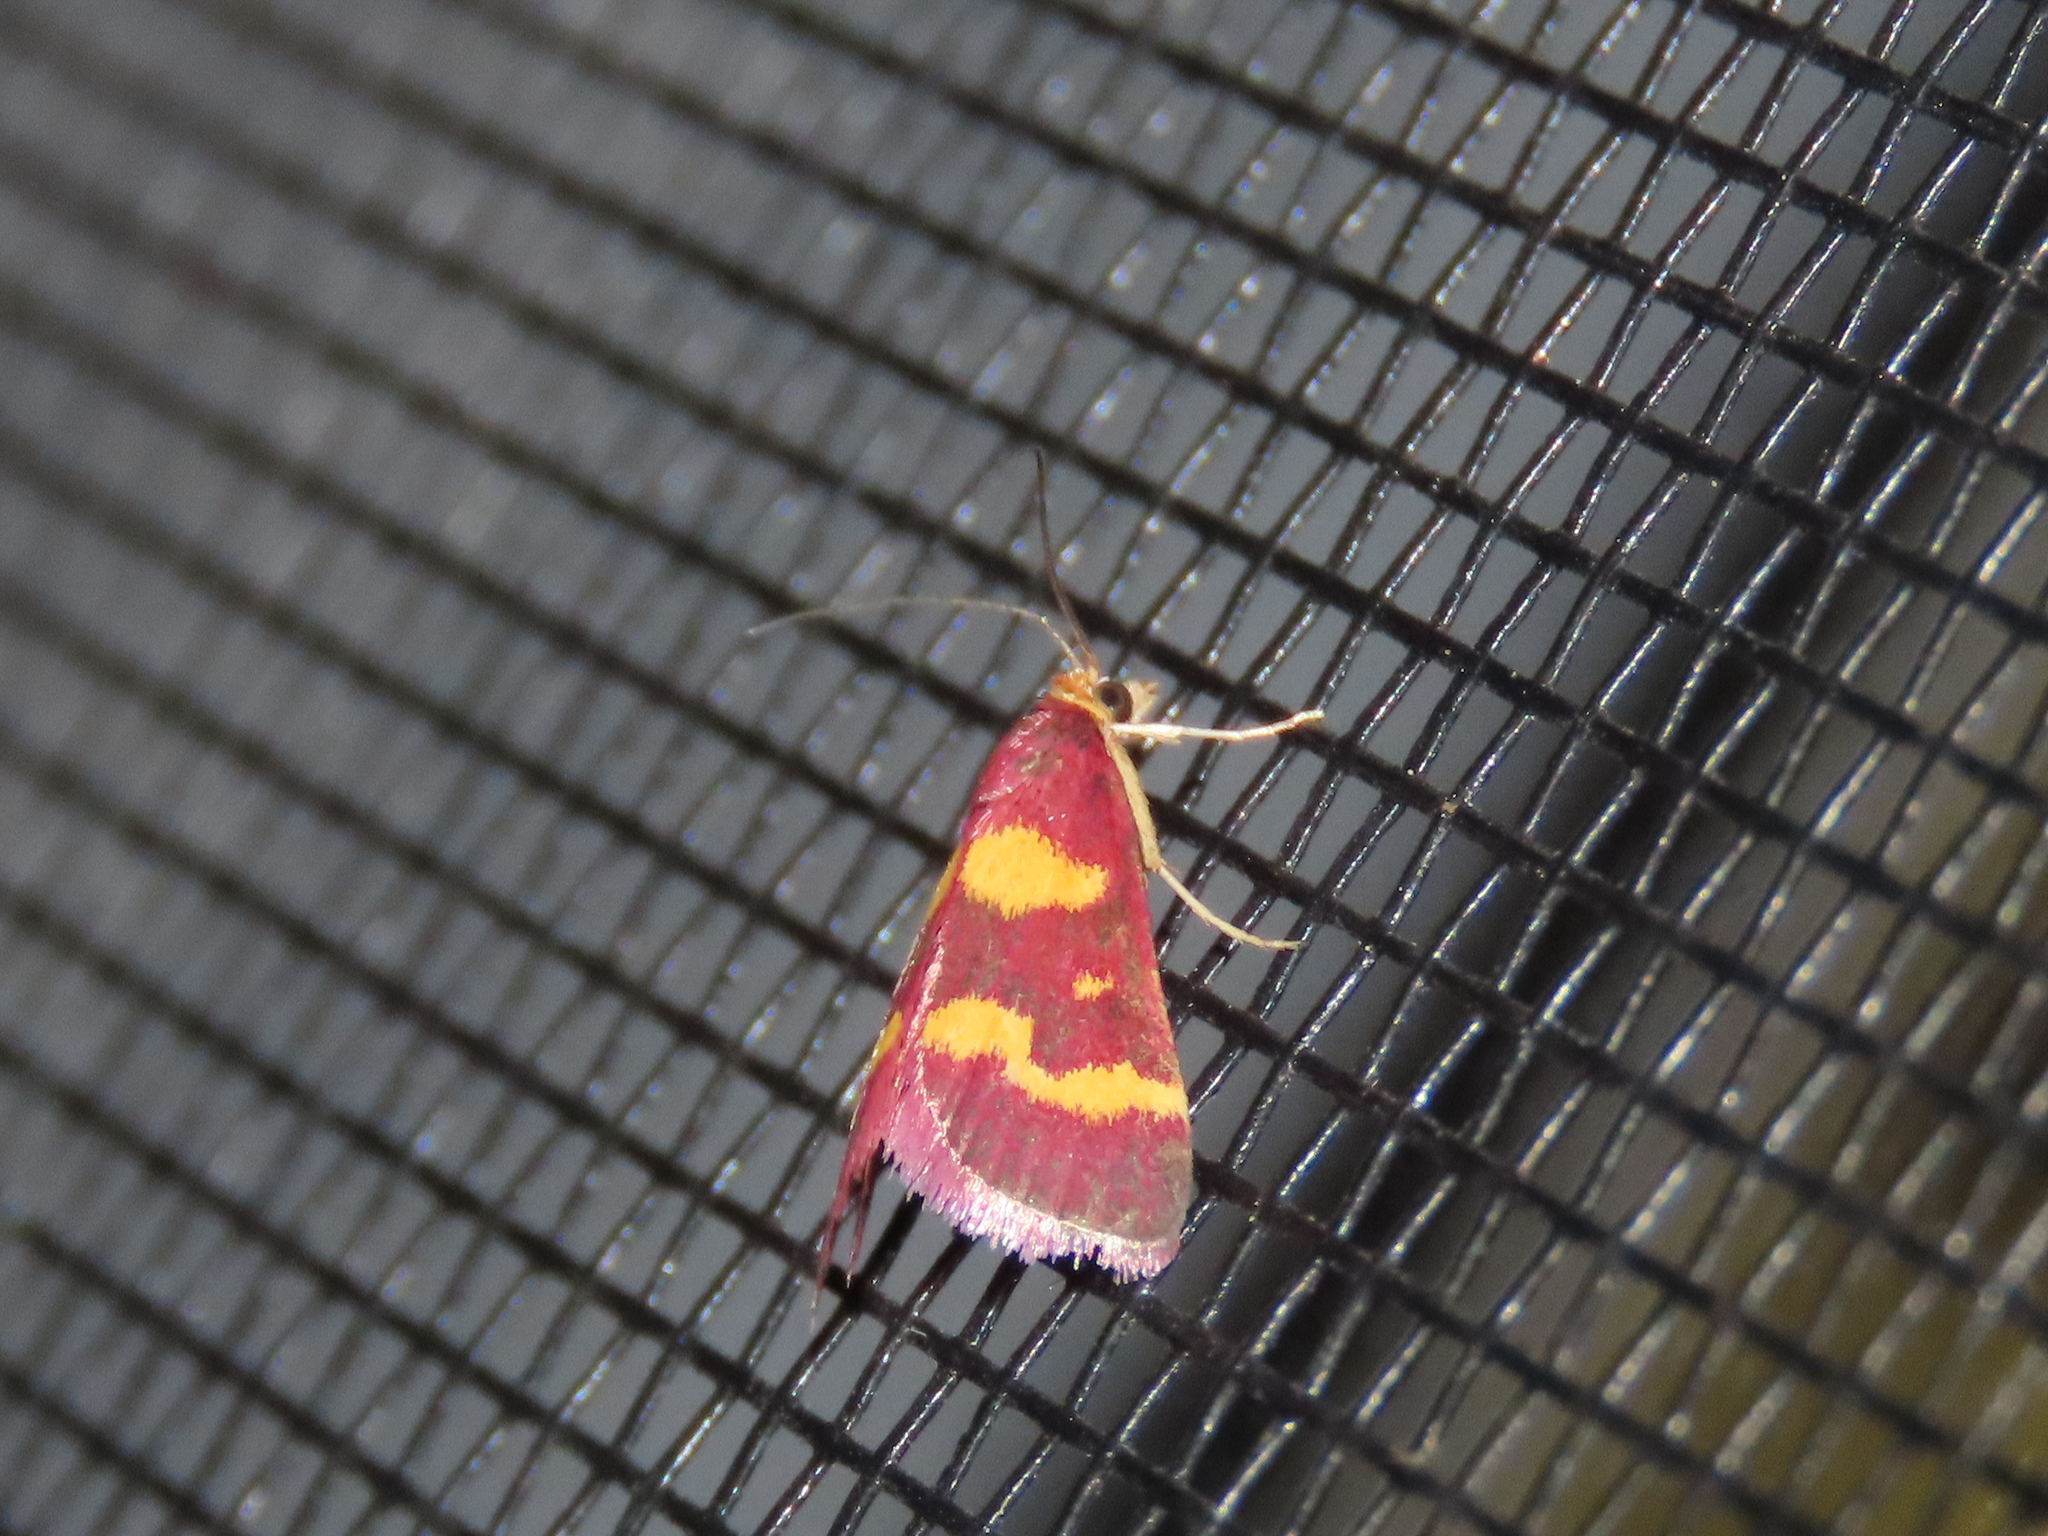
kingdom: Animalia
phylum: Arthropoda
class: Insecta
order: Lepidoptera
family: Crambidae
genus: Pyrausta
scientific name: Pyrausta tyralis
